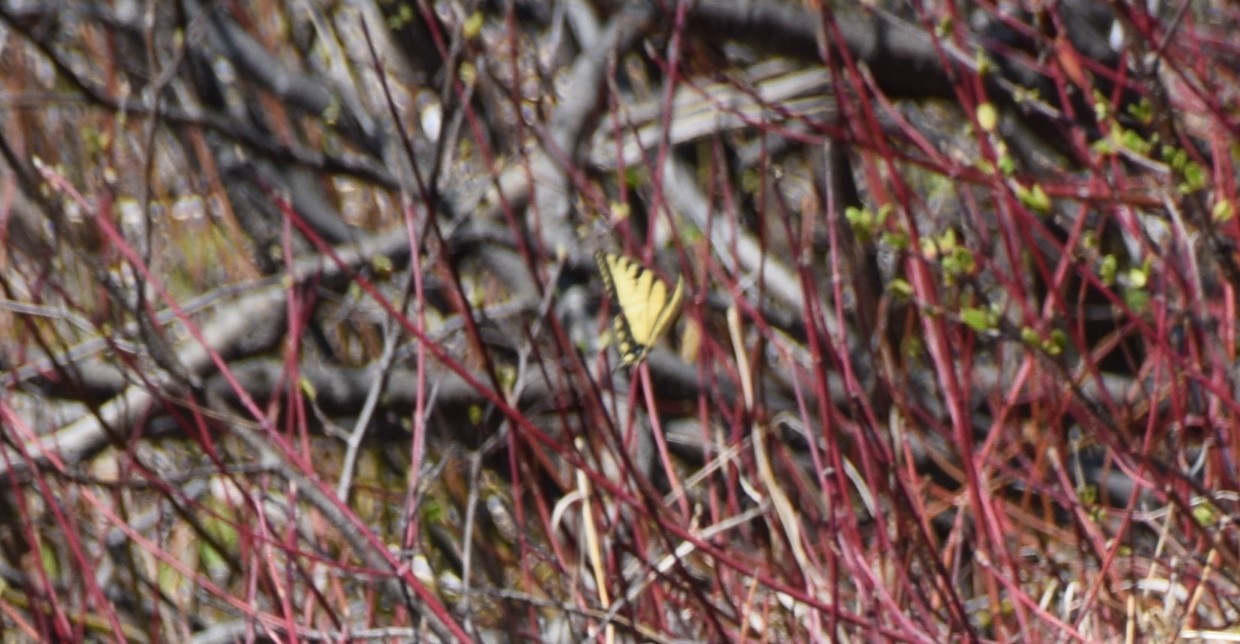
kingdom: Animalia
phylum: Arthropoda
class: Insecta
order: Lepidoptera
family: Papilionidae
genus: Papilio
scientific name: Papilio canadensis
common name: Canadian tiger swallowtail
